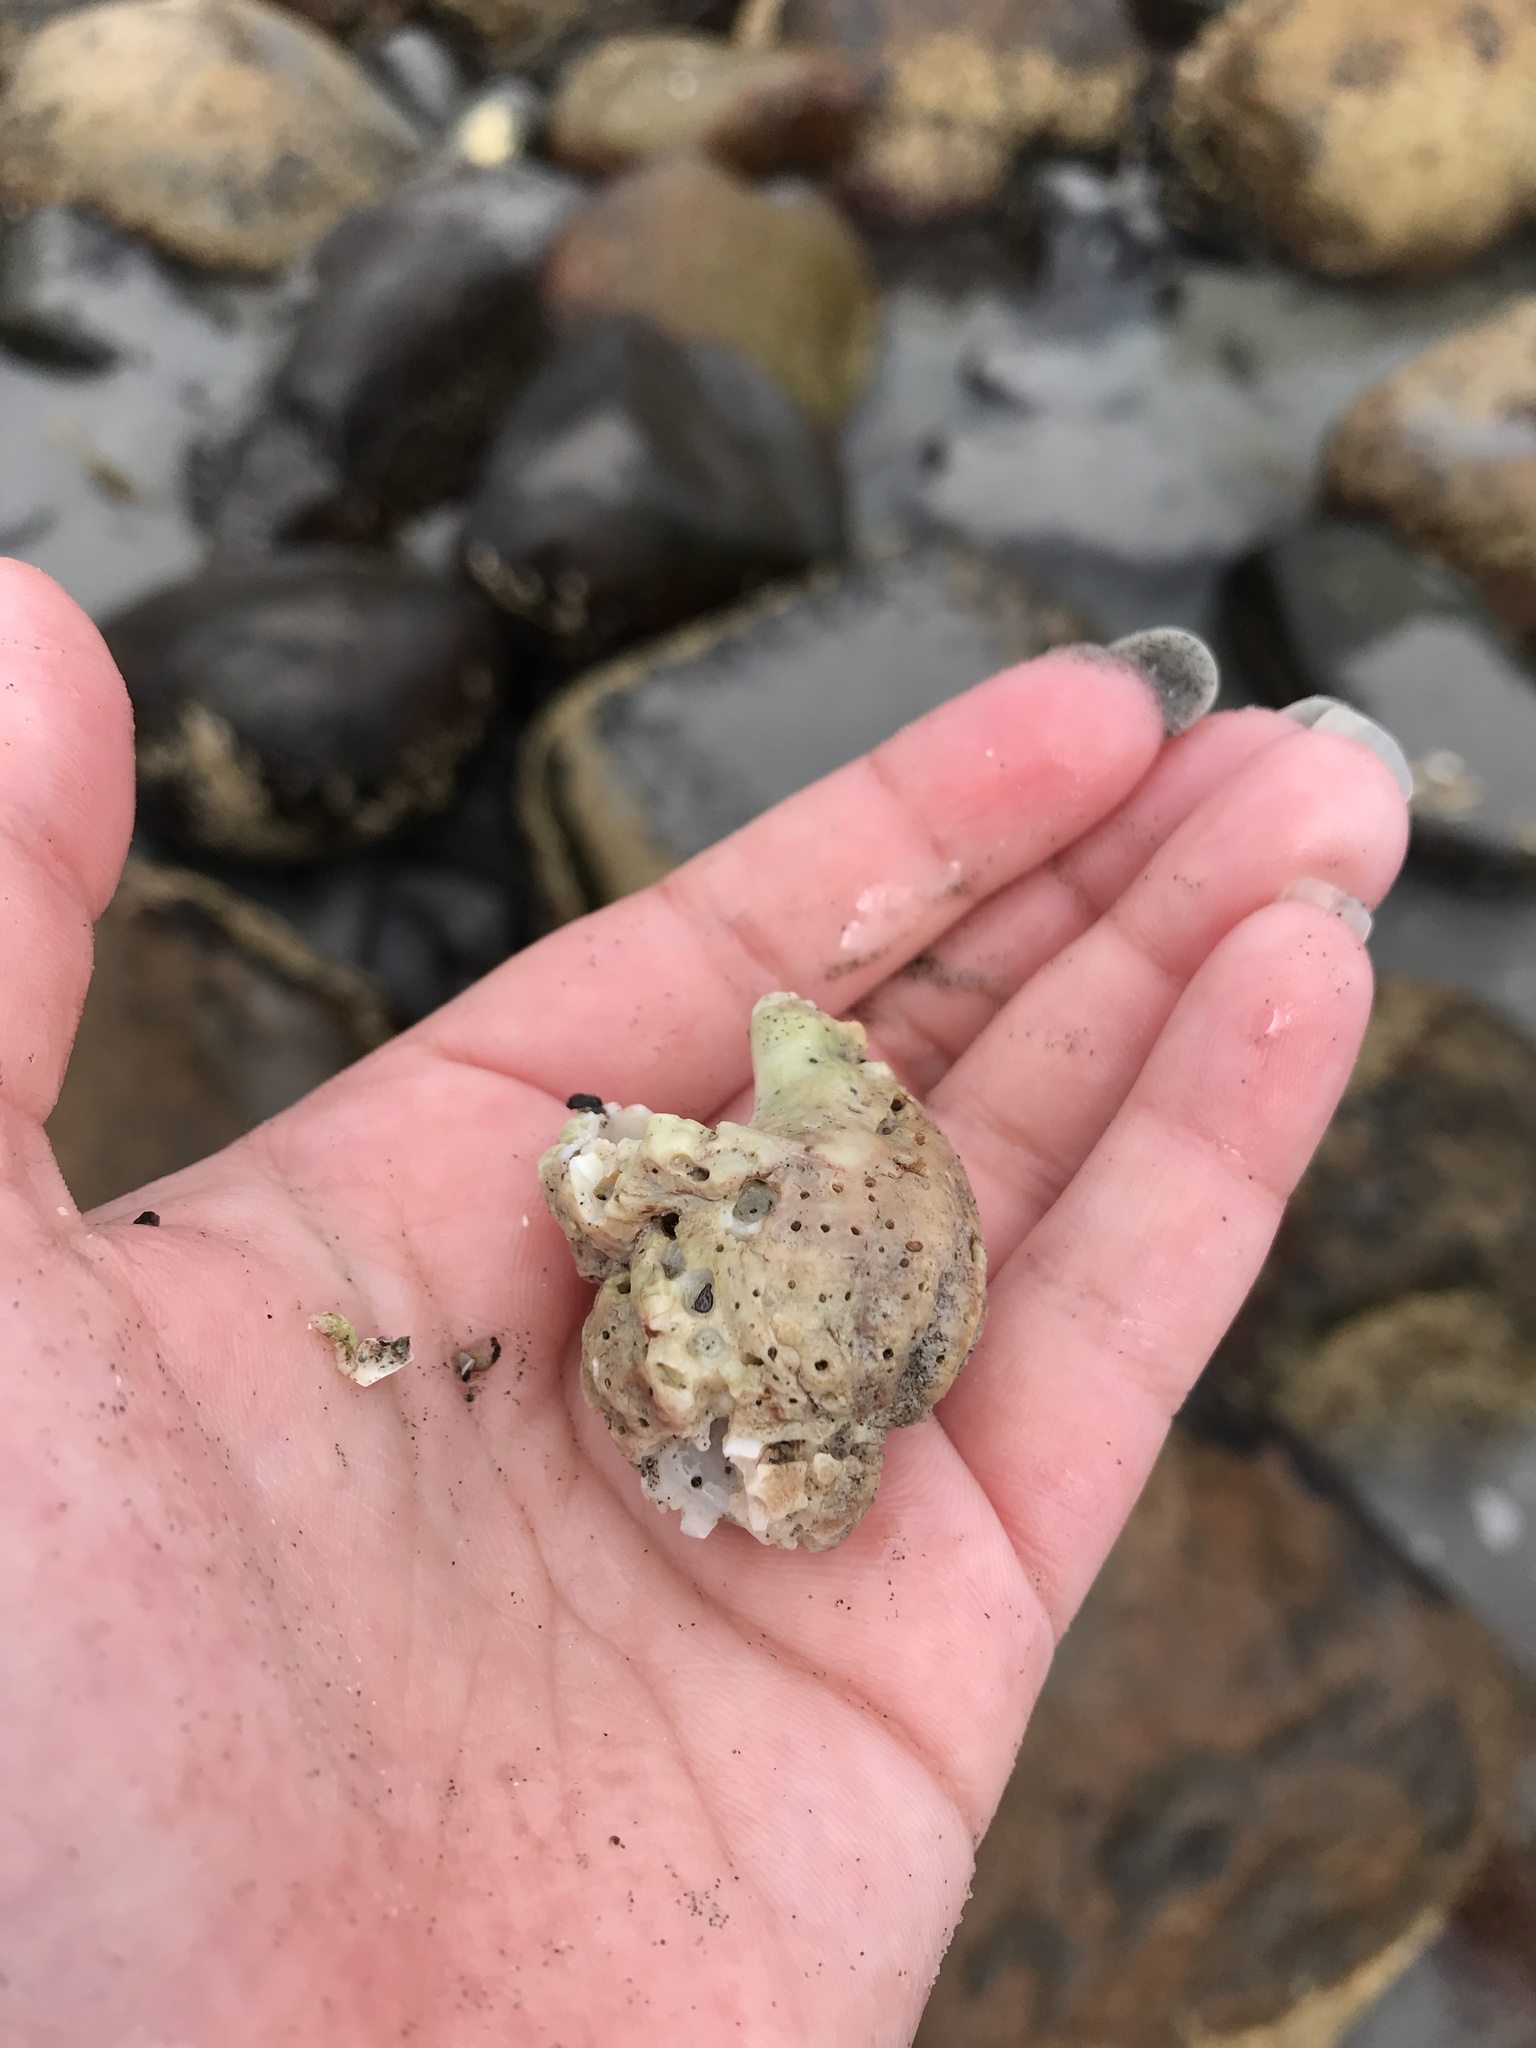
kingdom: Animalia
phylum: Mollusca
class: Gastropoda
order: Neogastropoda
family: Buccinidae
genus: Buccinum
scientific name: Buccinum undatum
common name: Common whelk
